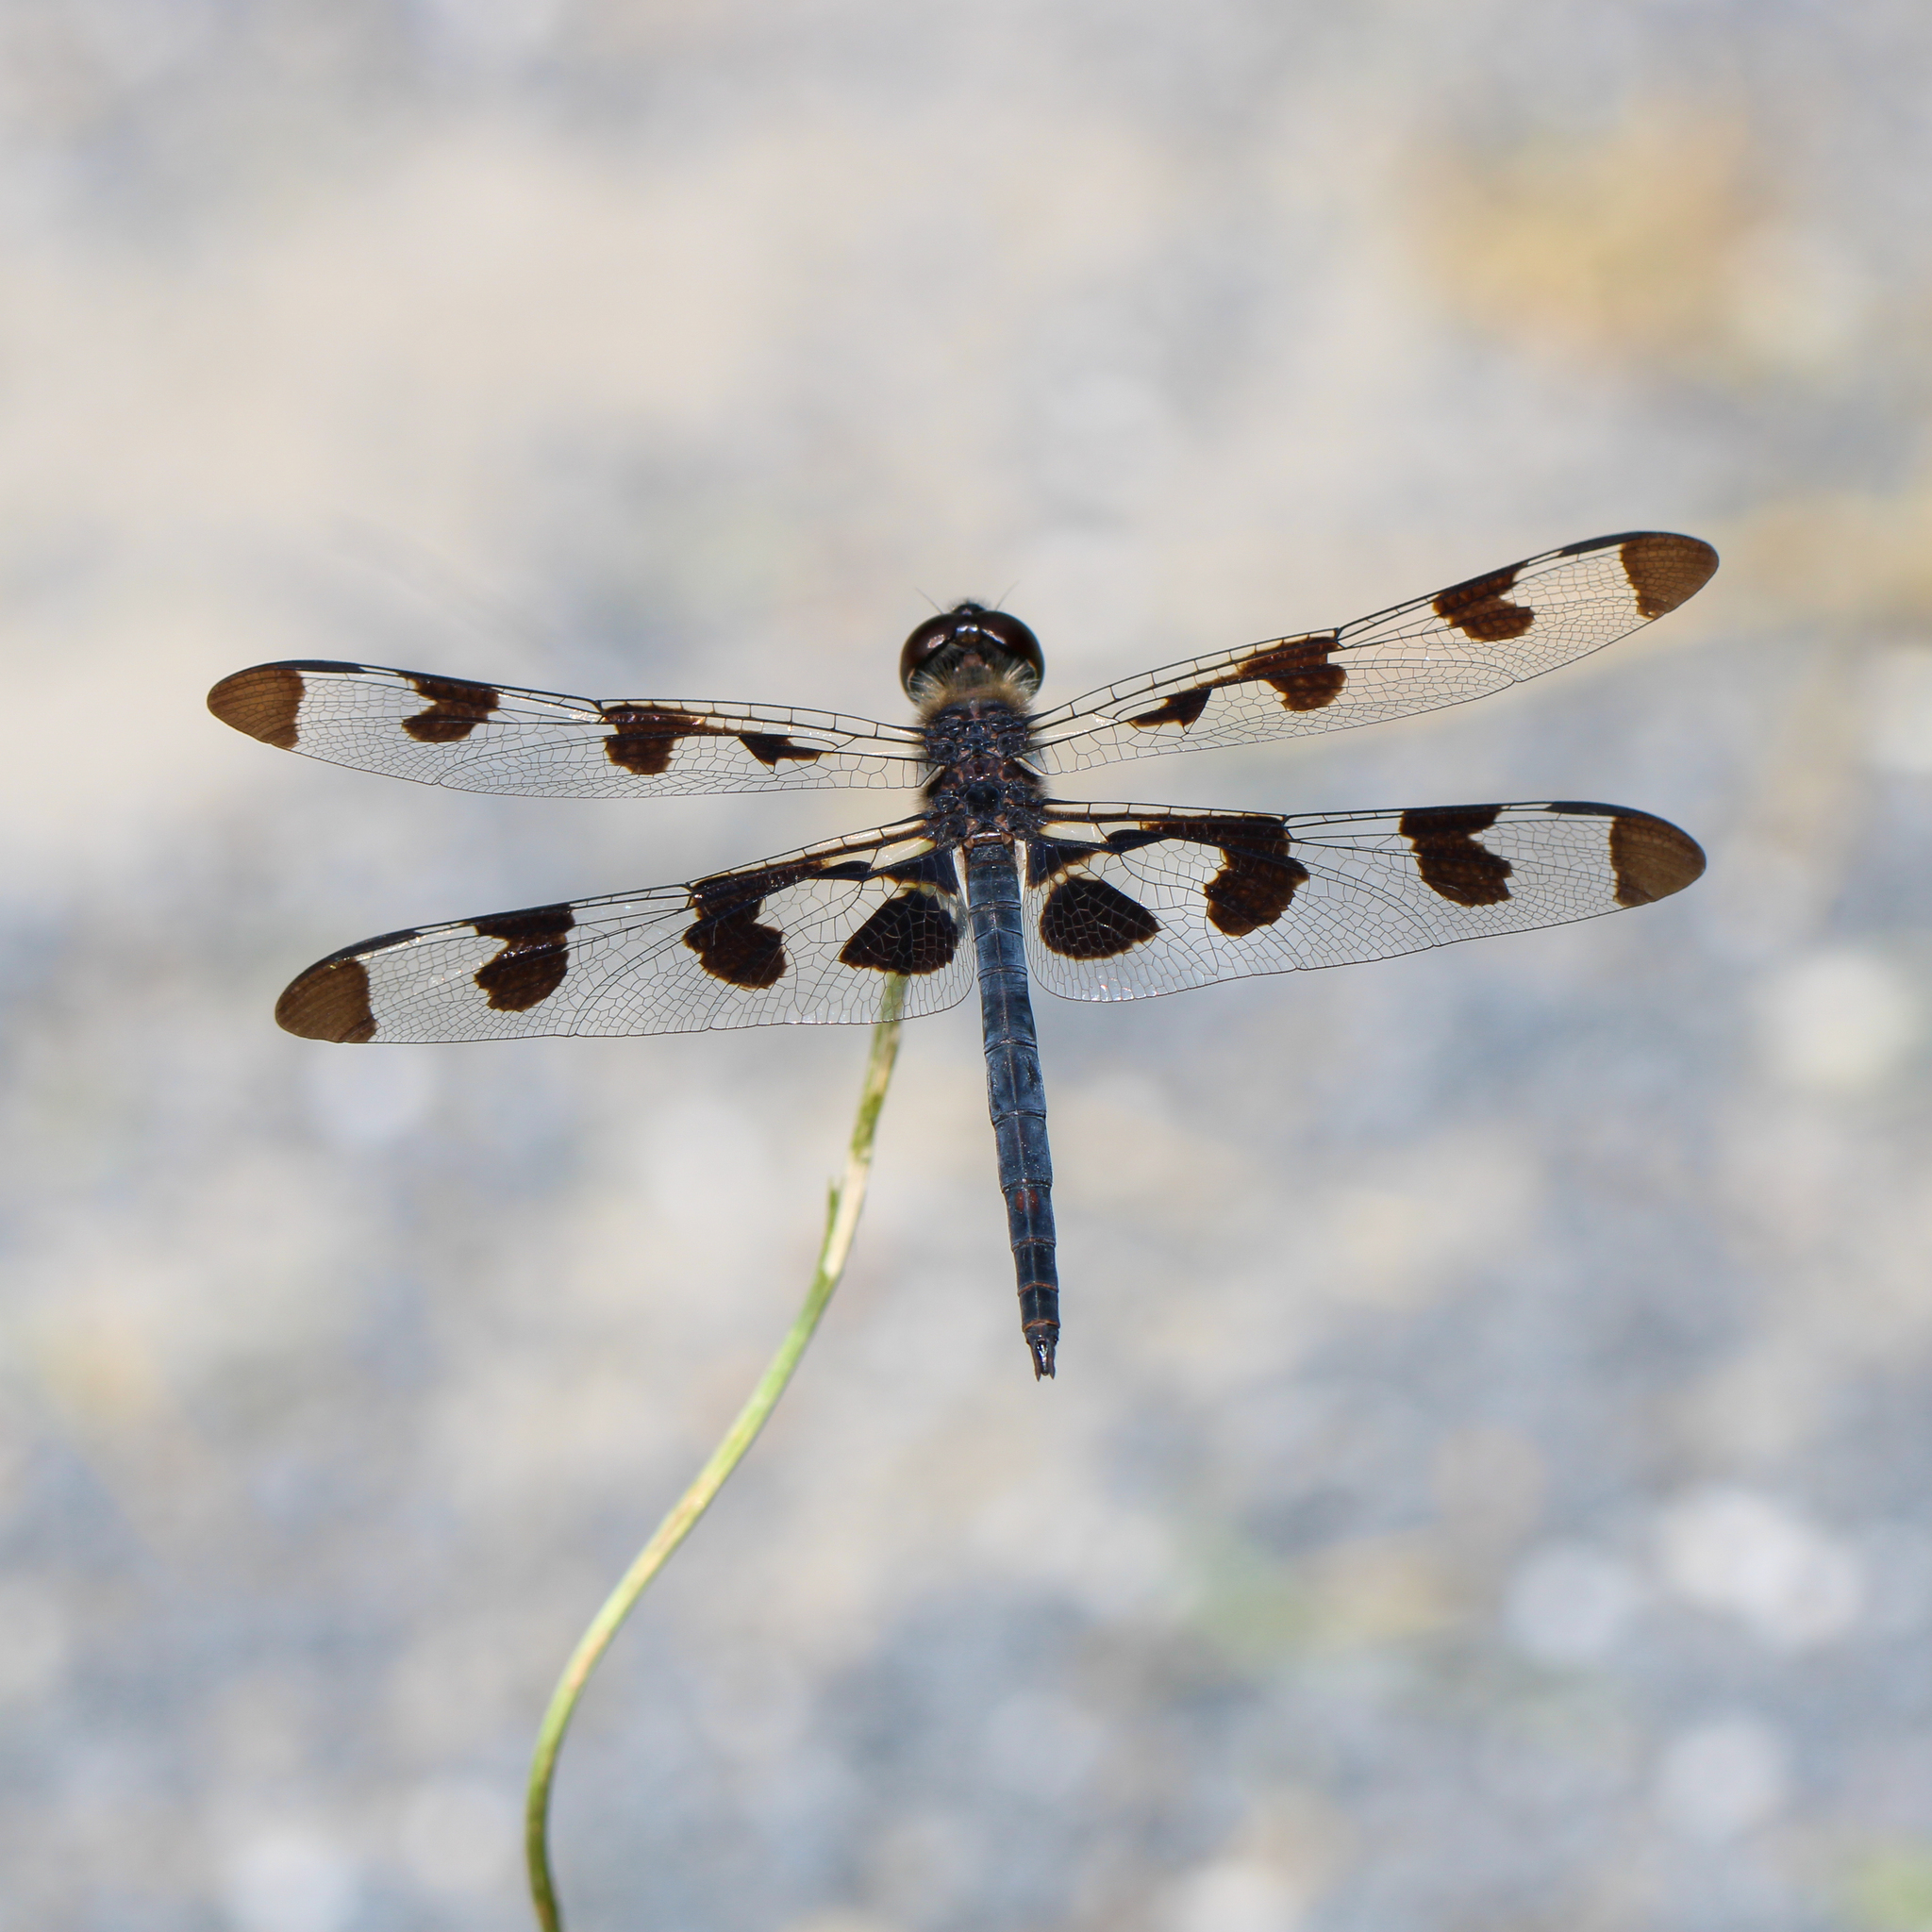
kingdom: Animalia
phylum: Arthropoda
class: Insecta
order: Odonata
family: Libellulidae
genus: Celithemis
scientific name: Celithemis fasciata
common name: Banded pennant
